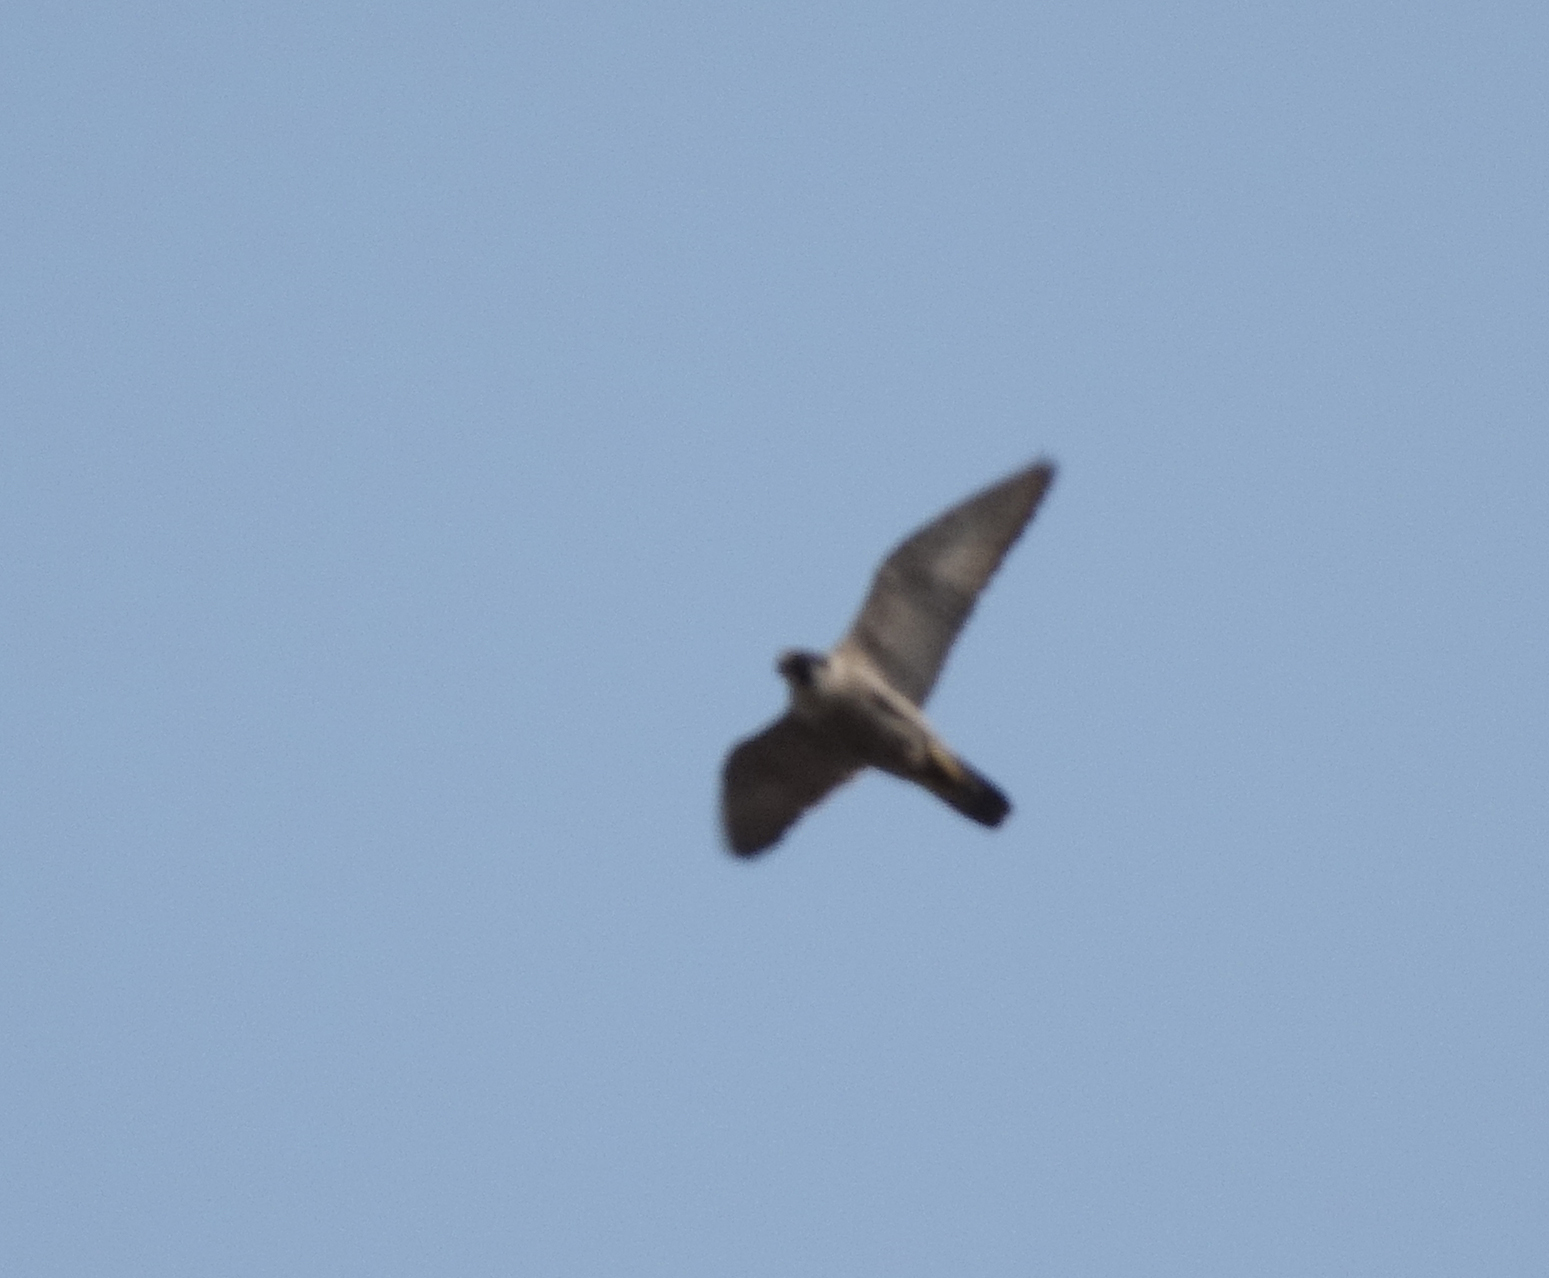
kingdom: Animalia
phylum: Chordata
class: Aves
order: Falconiformes
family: Falconidae
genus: Falco
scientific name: Falco peregrinus
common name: Peregrine falcon
